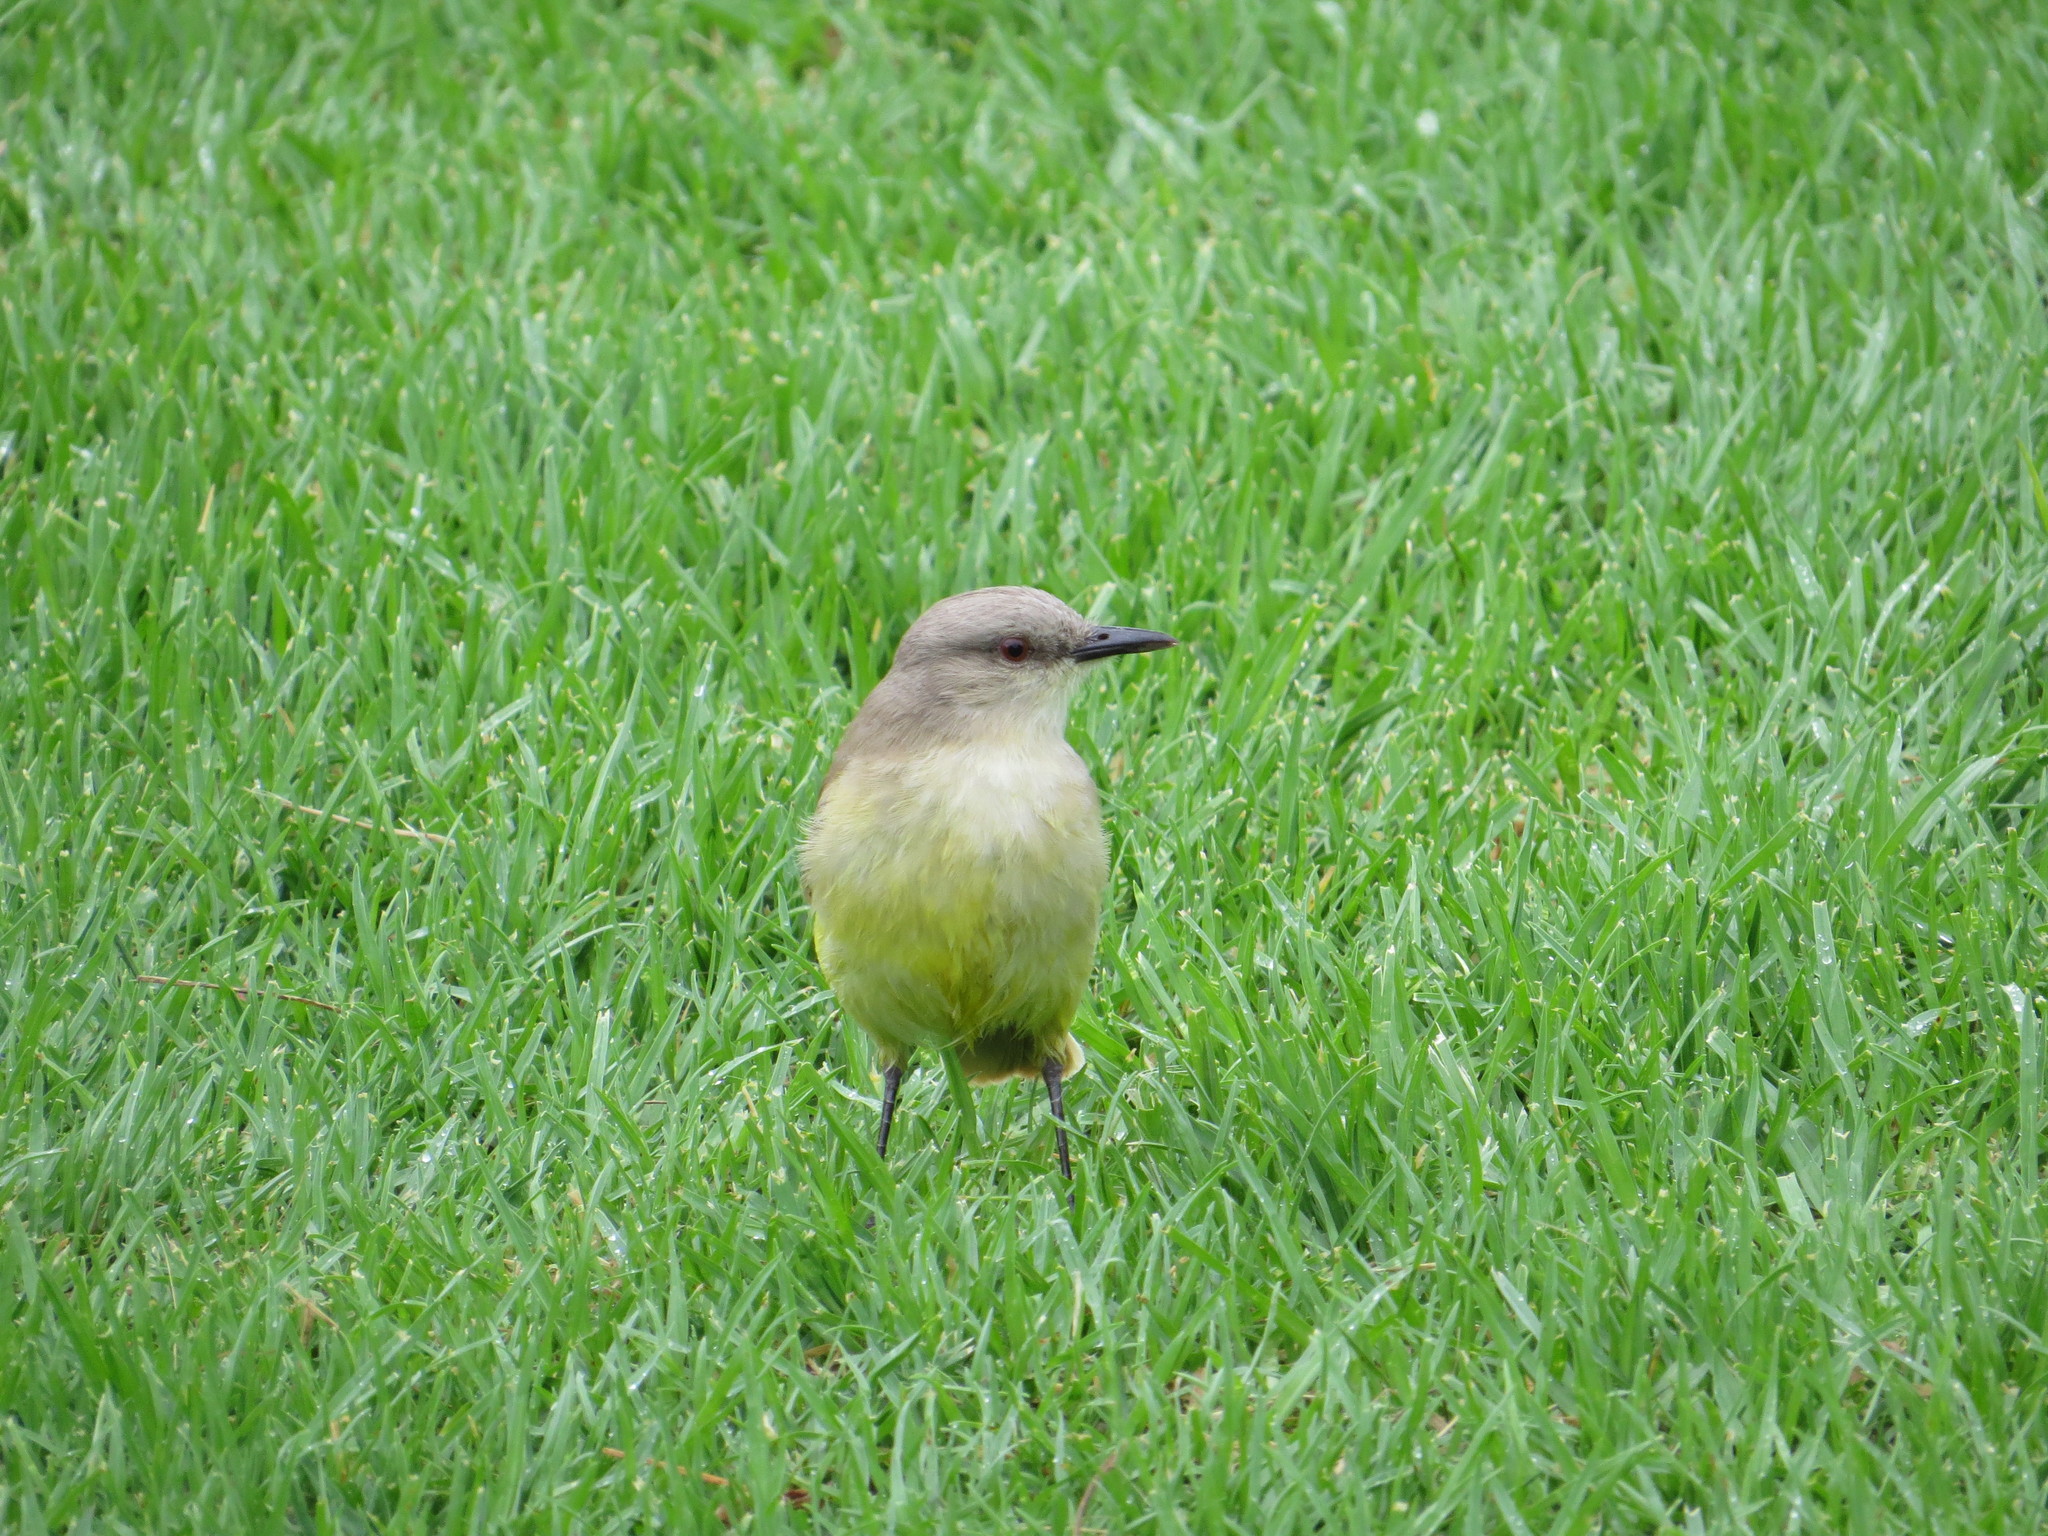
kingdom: Animalia
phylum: Chordata
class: Aves
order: Passeriformes
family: Tyrannidae
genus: Machetornis
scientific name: Machetornis rixosa
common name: Cattle tyrant
